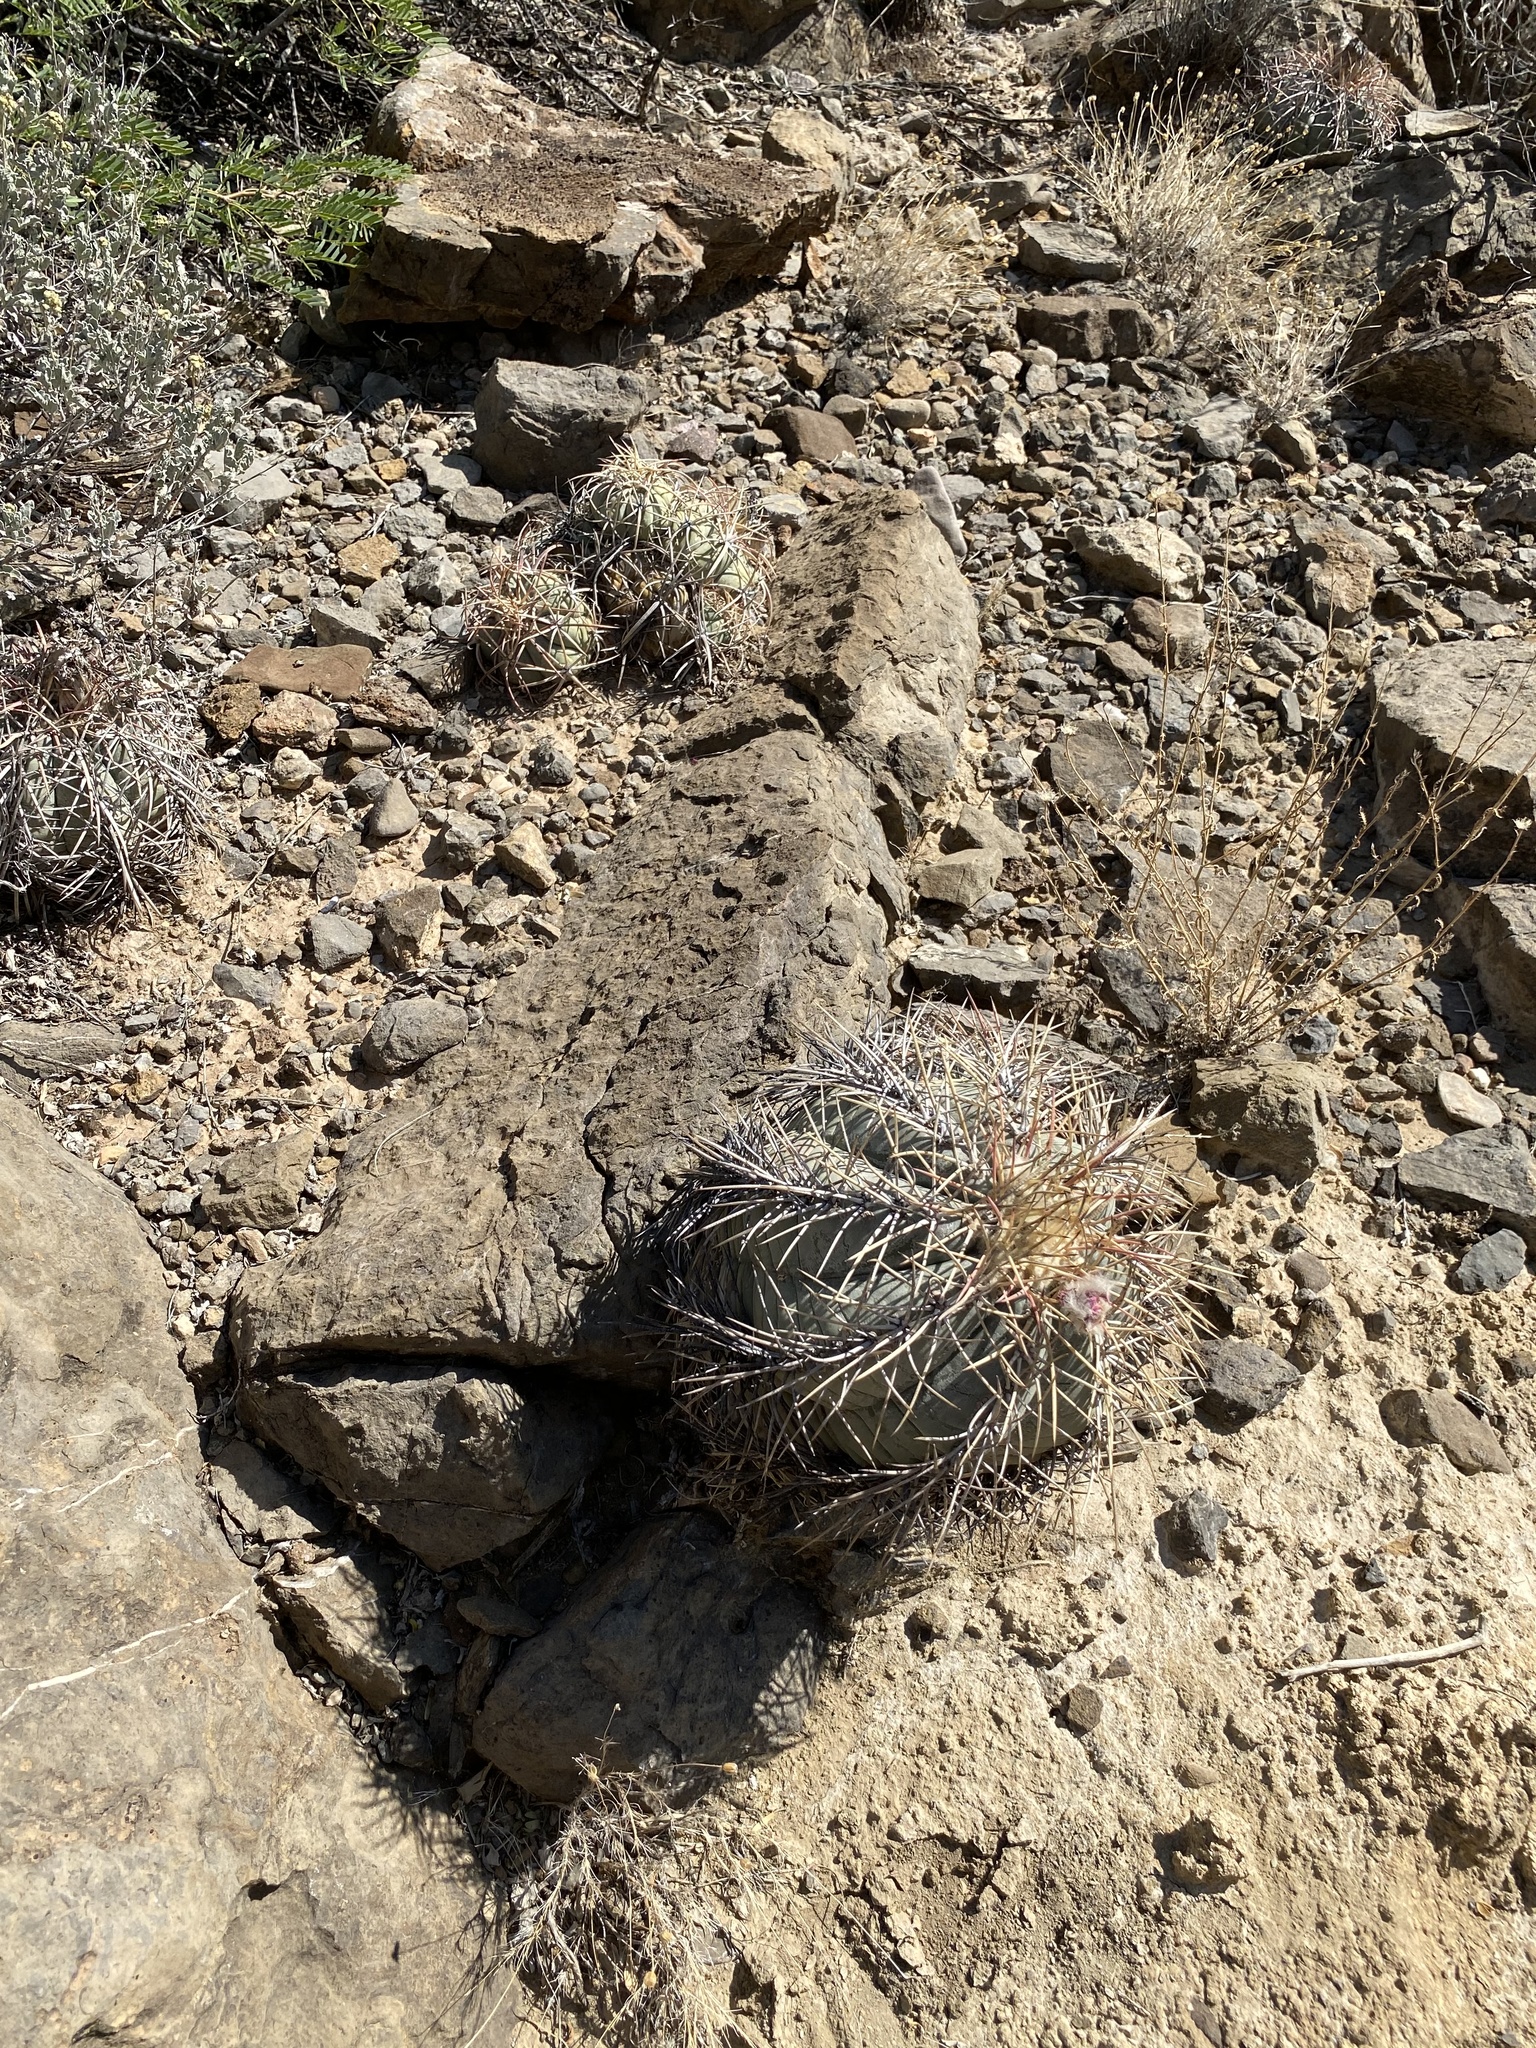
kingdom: Plantae
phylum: Tracheophyta
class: Magnoliopsida
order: Caryophyllales
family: Cactaceae
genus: Echinocactus
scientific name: Echinocactus horizonthalonius
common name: Devilshead
